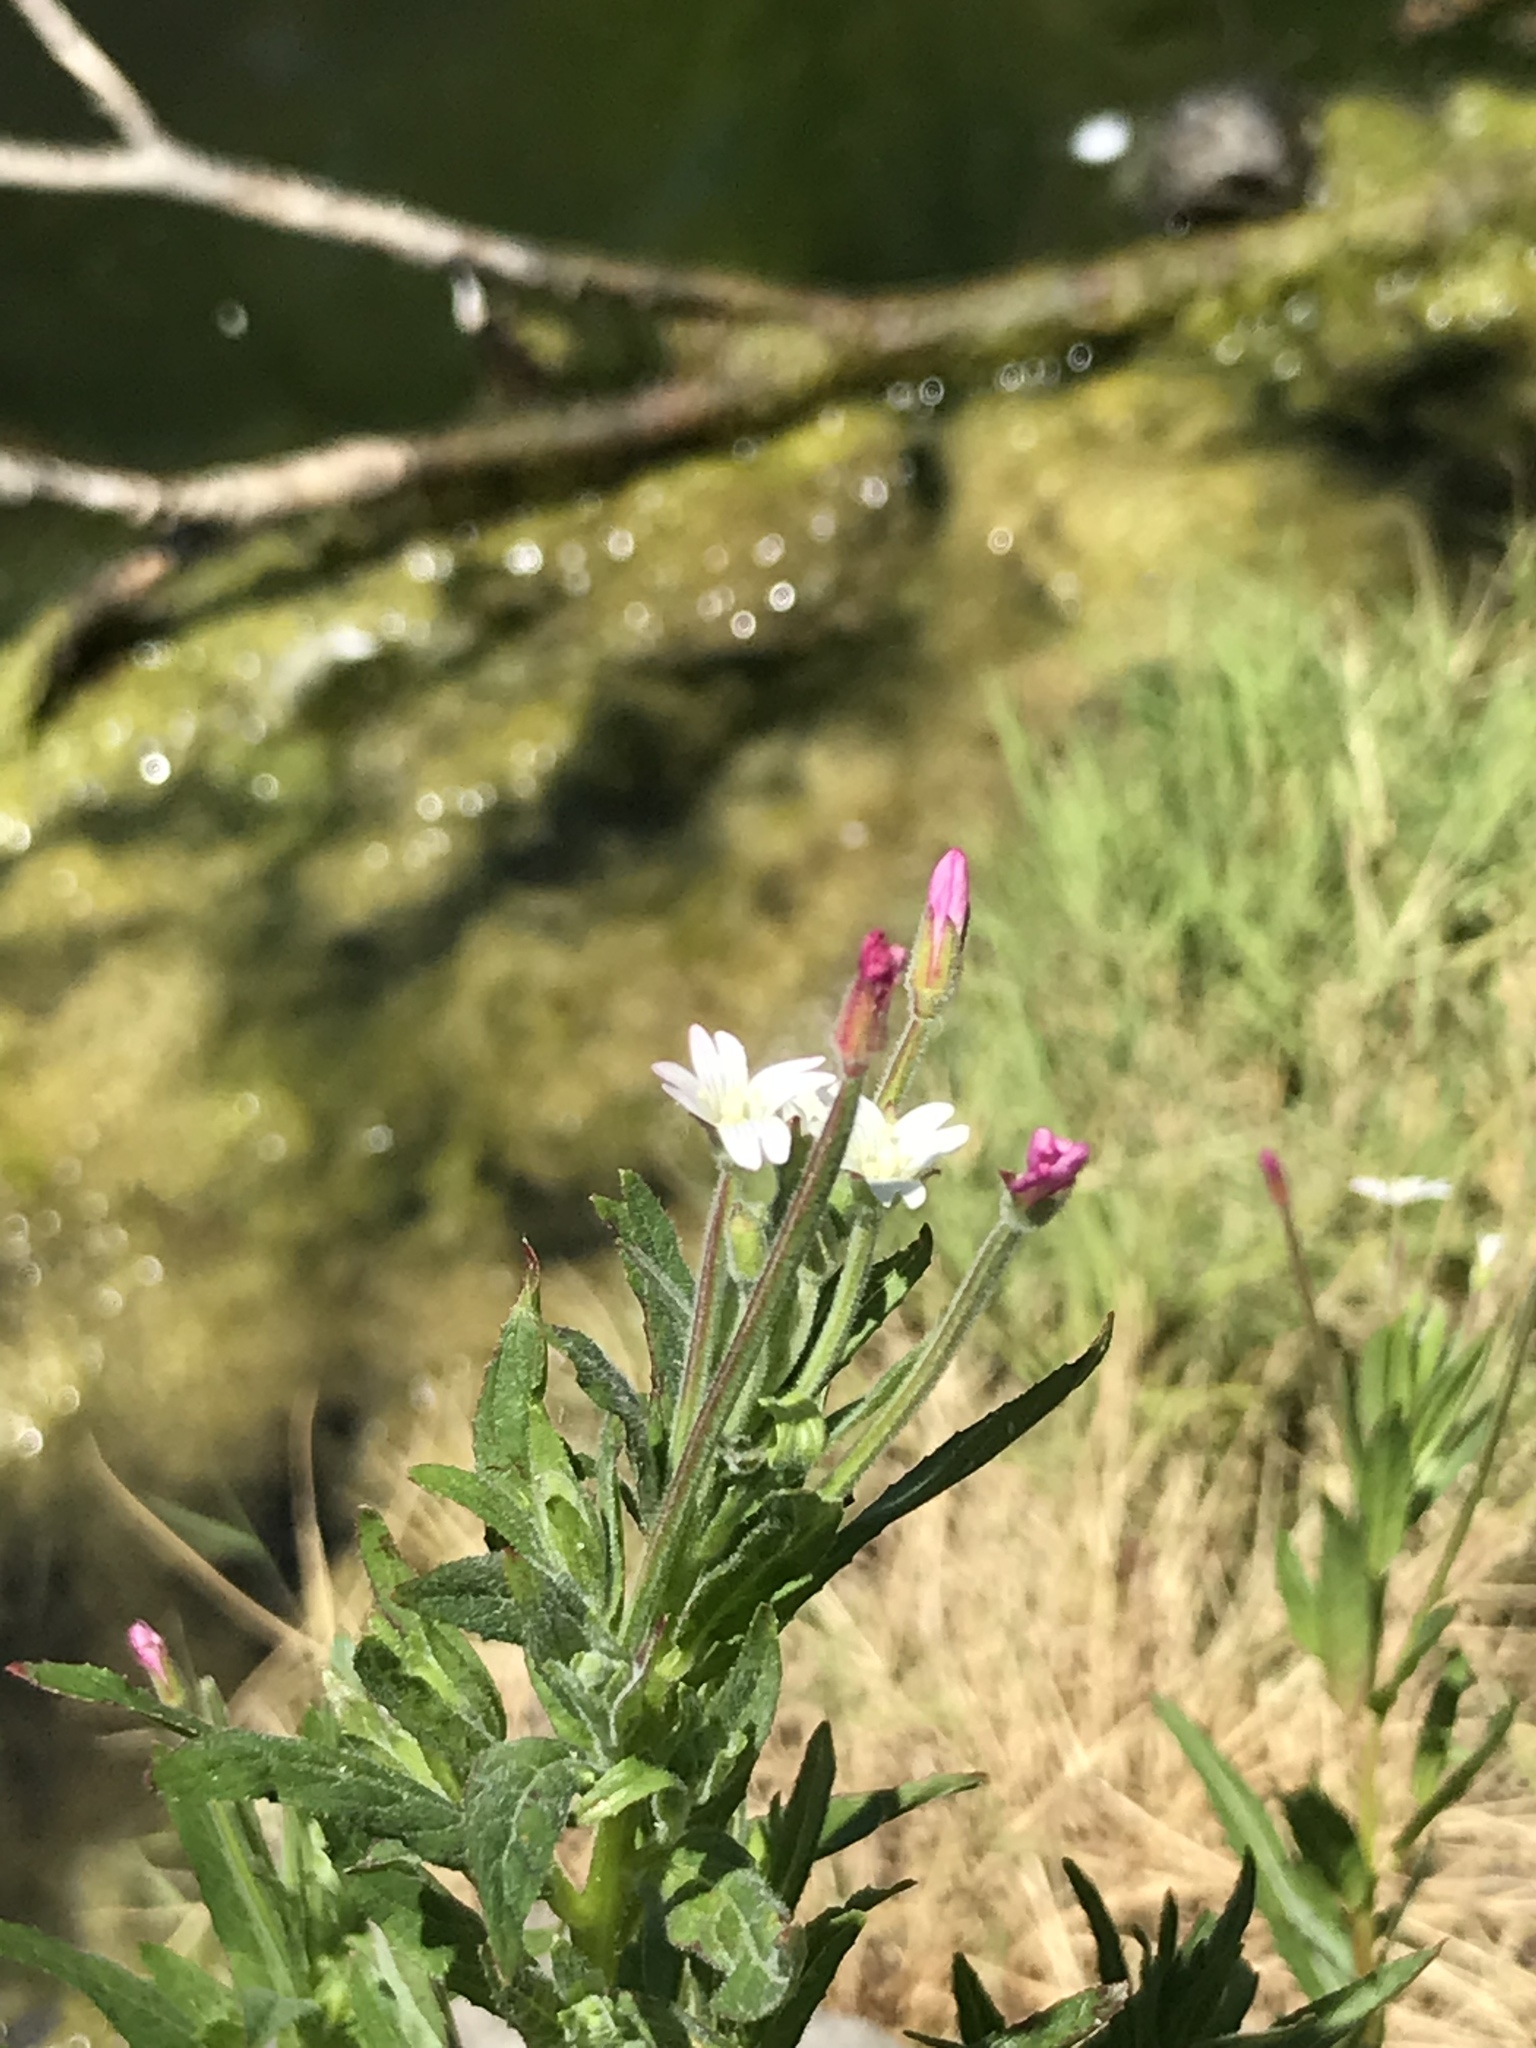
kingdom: Plantae
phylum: Tracheophyta
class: Magnoliopsida
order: Myrtales
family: Onagraceae
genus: Epilobium
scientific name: Epilobium ciliatum
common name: American willowherb
